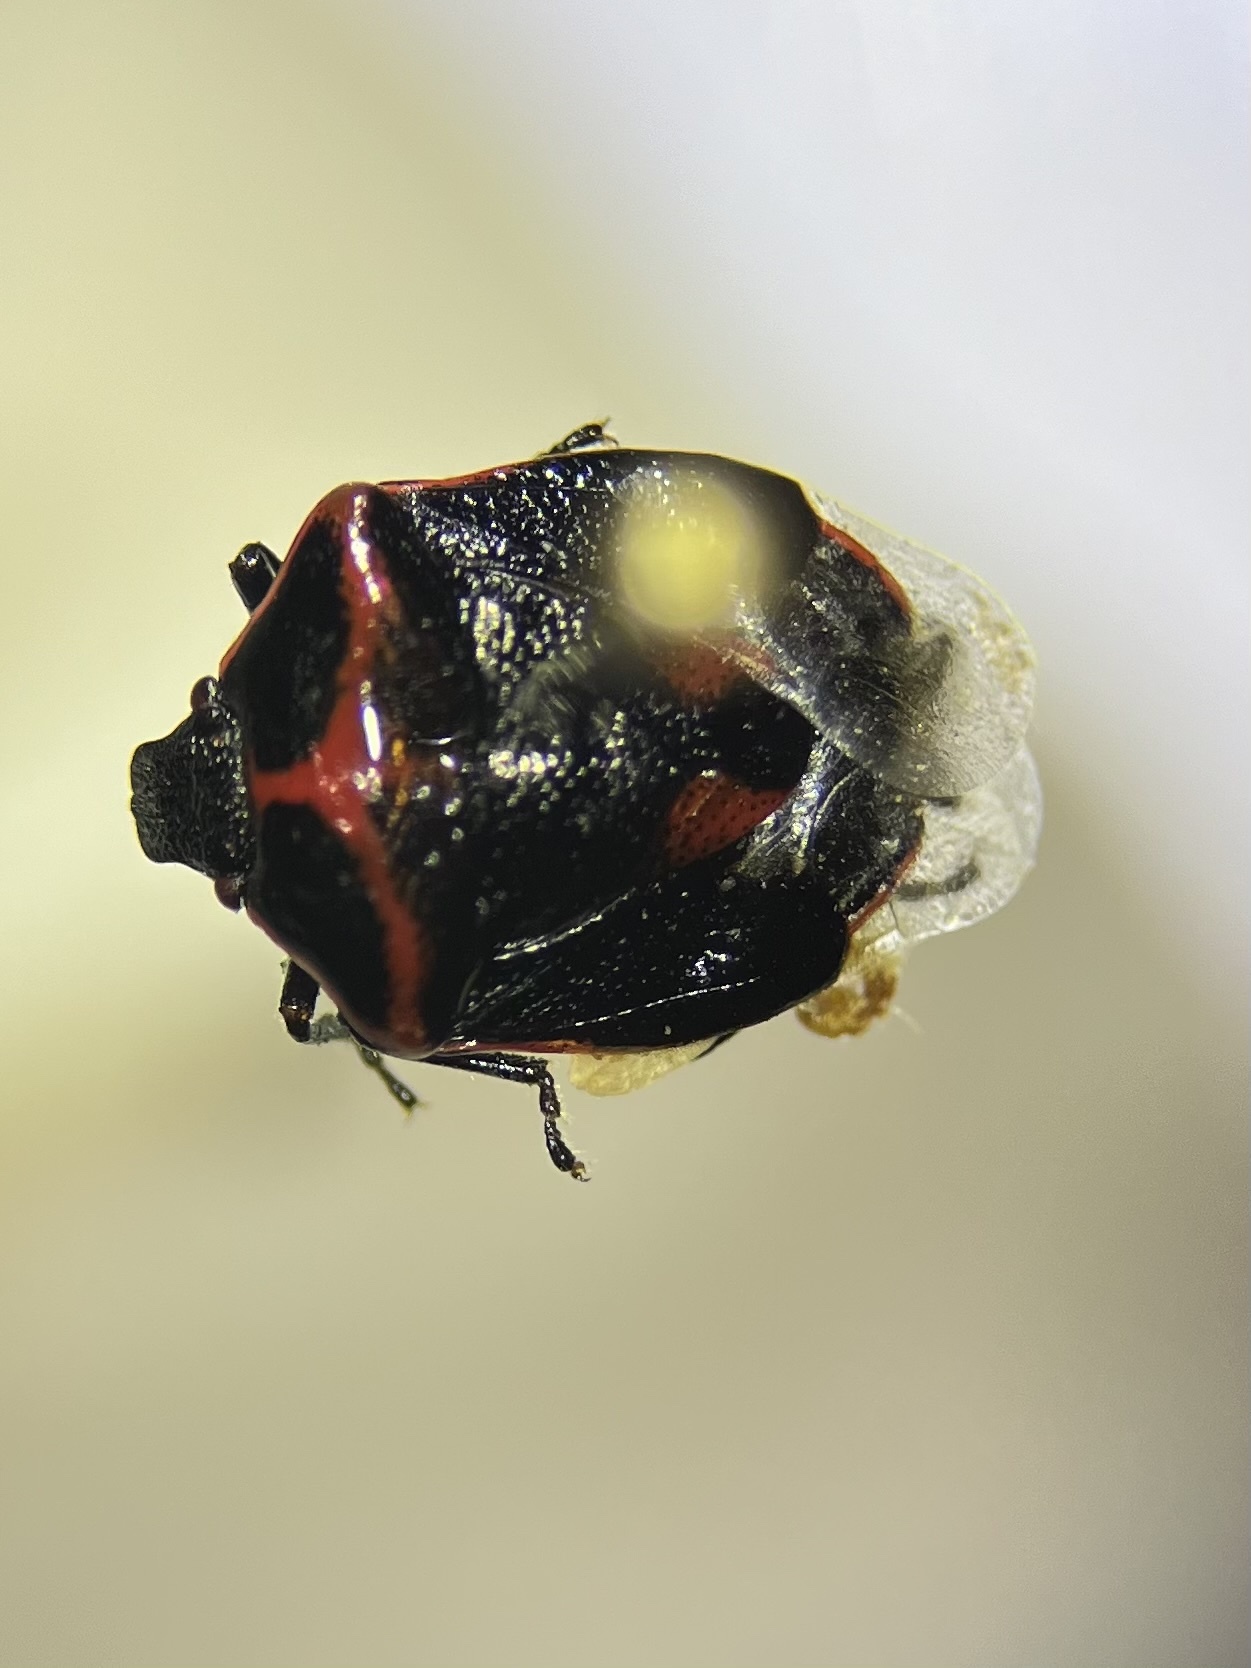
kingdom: Animalia
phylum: Arthropoda
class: Insecta
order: Hemiptera
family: Pentatomidae
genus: Cosmopepla
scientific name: Cosmopepla lintneriana
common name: Twice-stabbed stink bug
